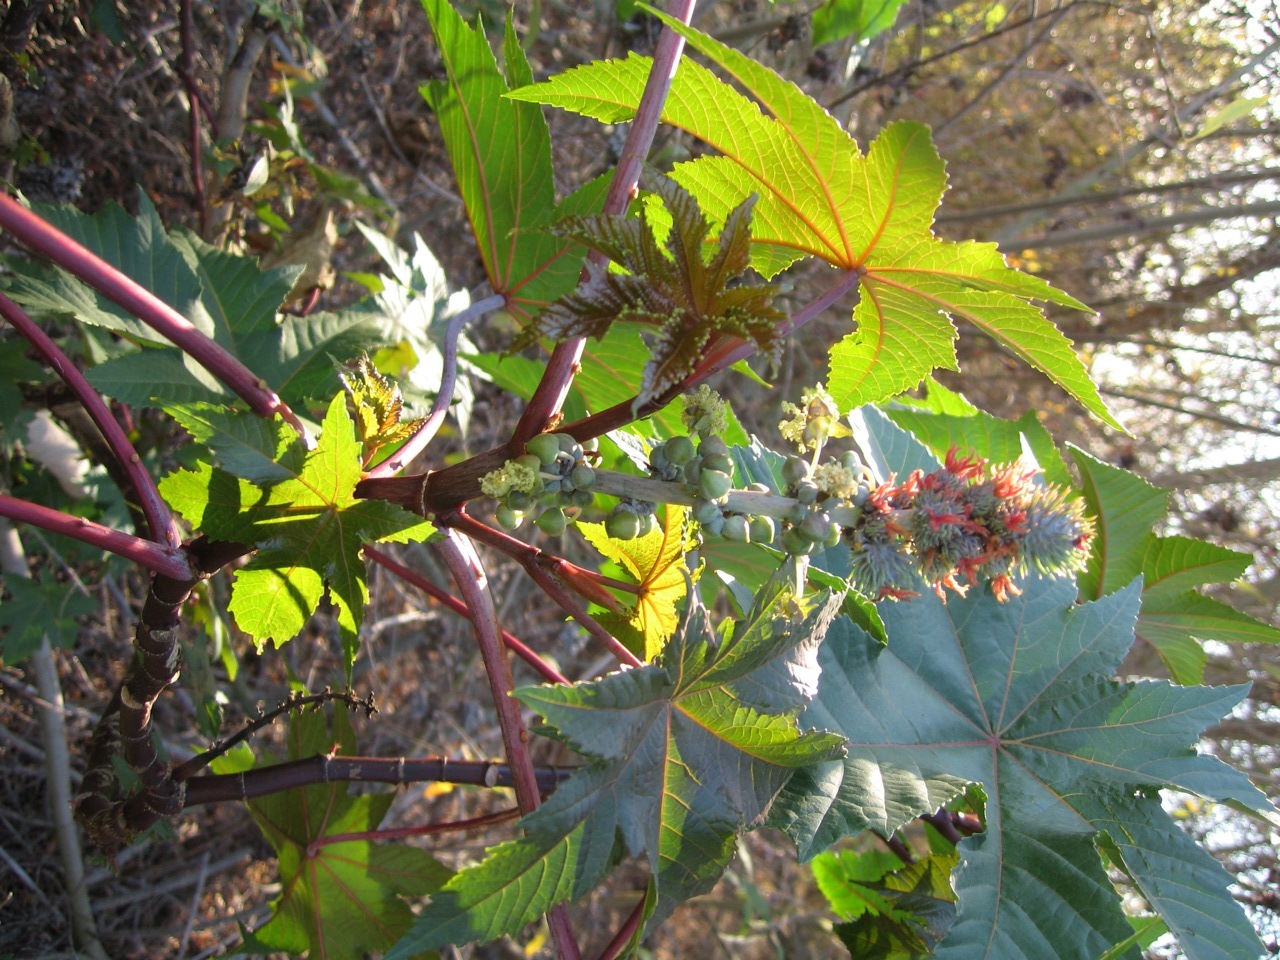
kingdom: Plantae
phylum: Tracheophyta
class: Magnoliopsida
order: Malpighiales
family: Euphorbiaceae
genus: Ricinus
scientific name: Ricinus communis
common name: Castor-oil-plant
